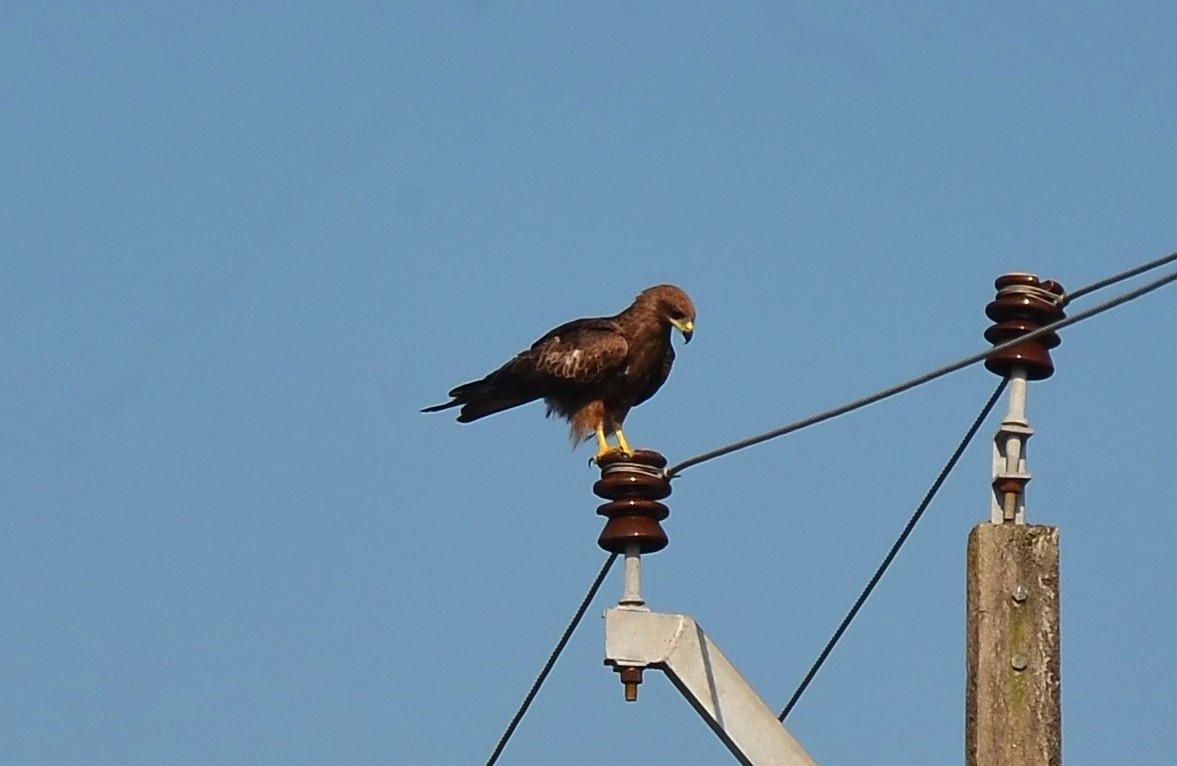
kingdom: Animalia
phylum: Chordata
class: Aves
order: Accipitriformes
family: Accipitridae
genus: Milvus
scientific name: Milvus migrans
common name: Black kite
